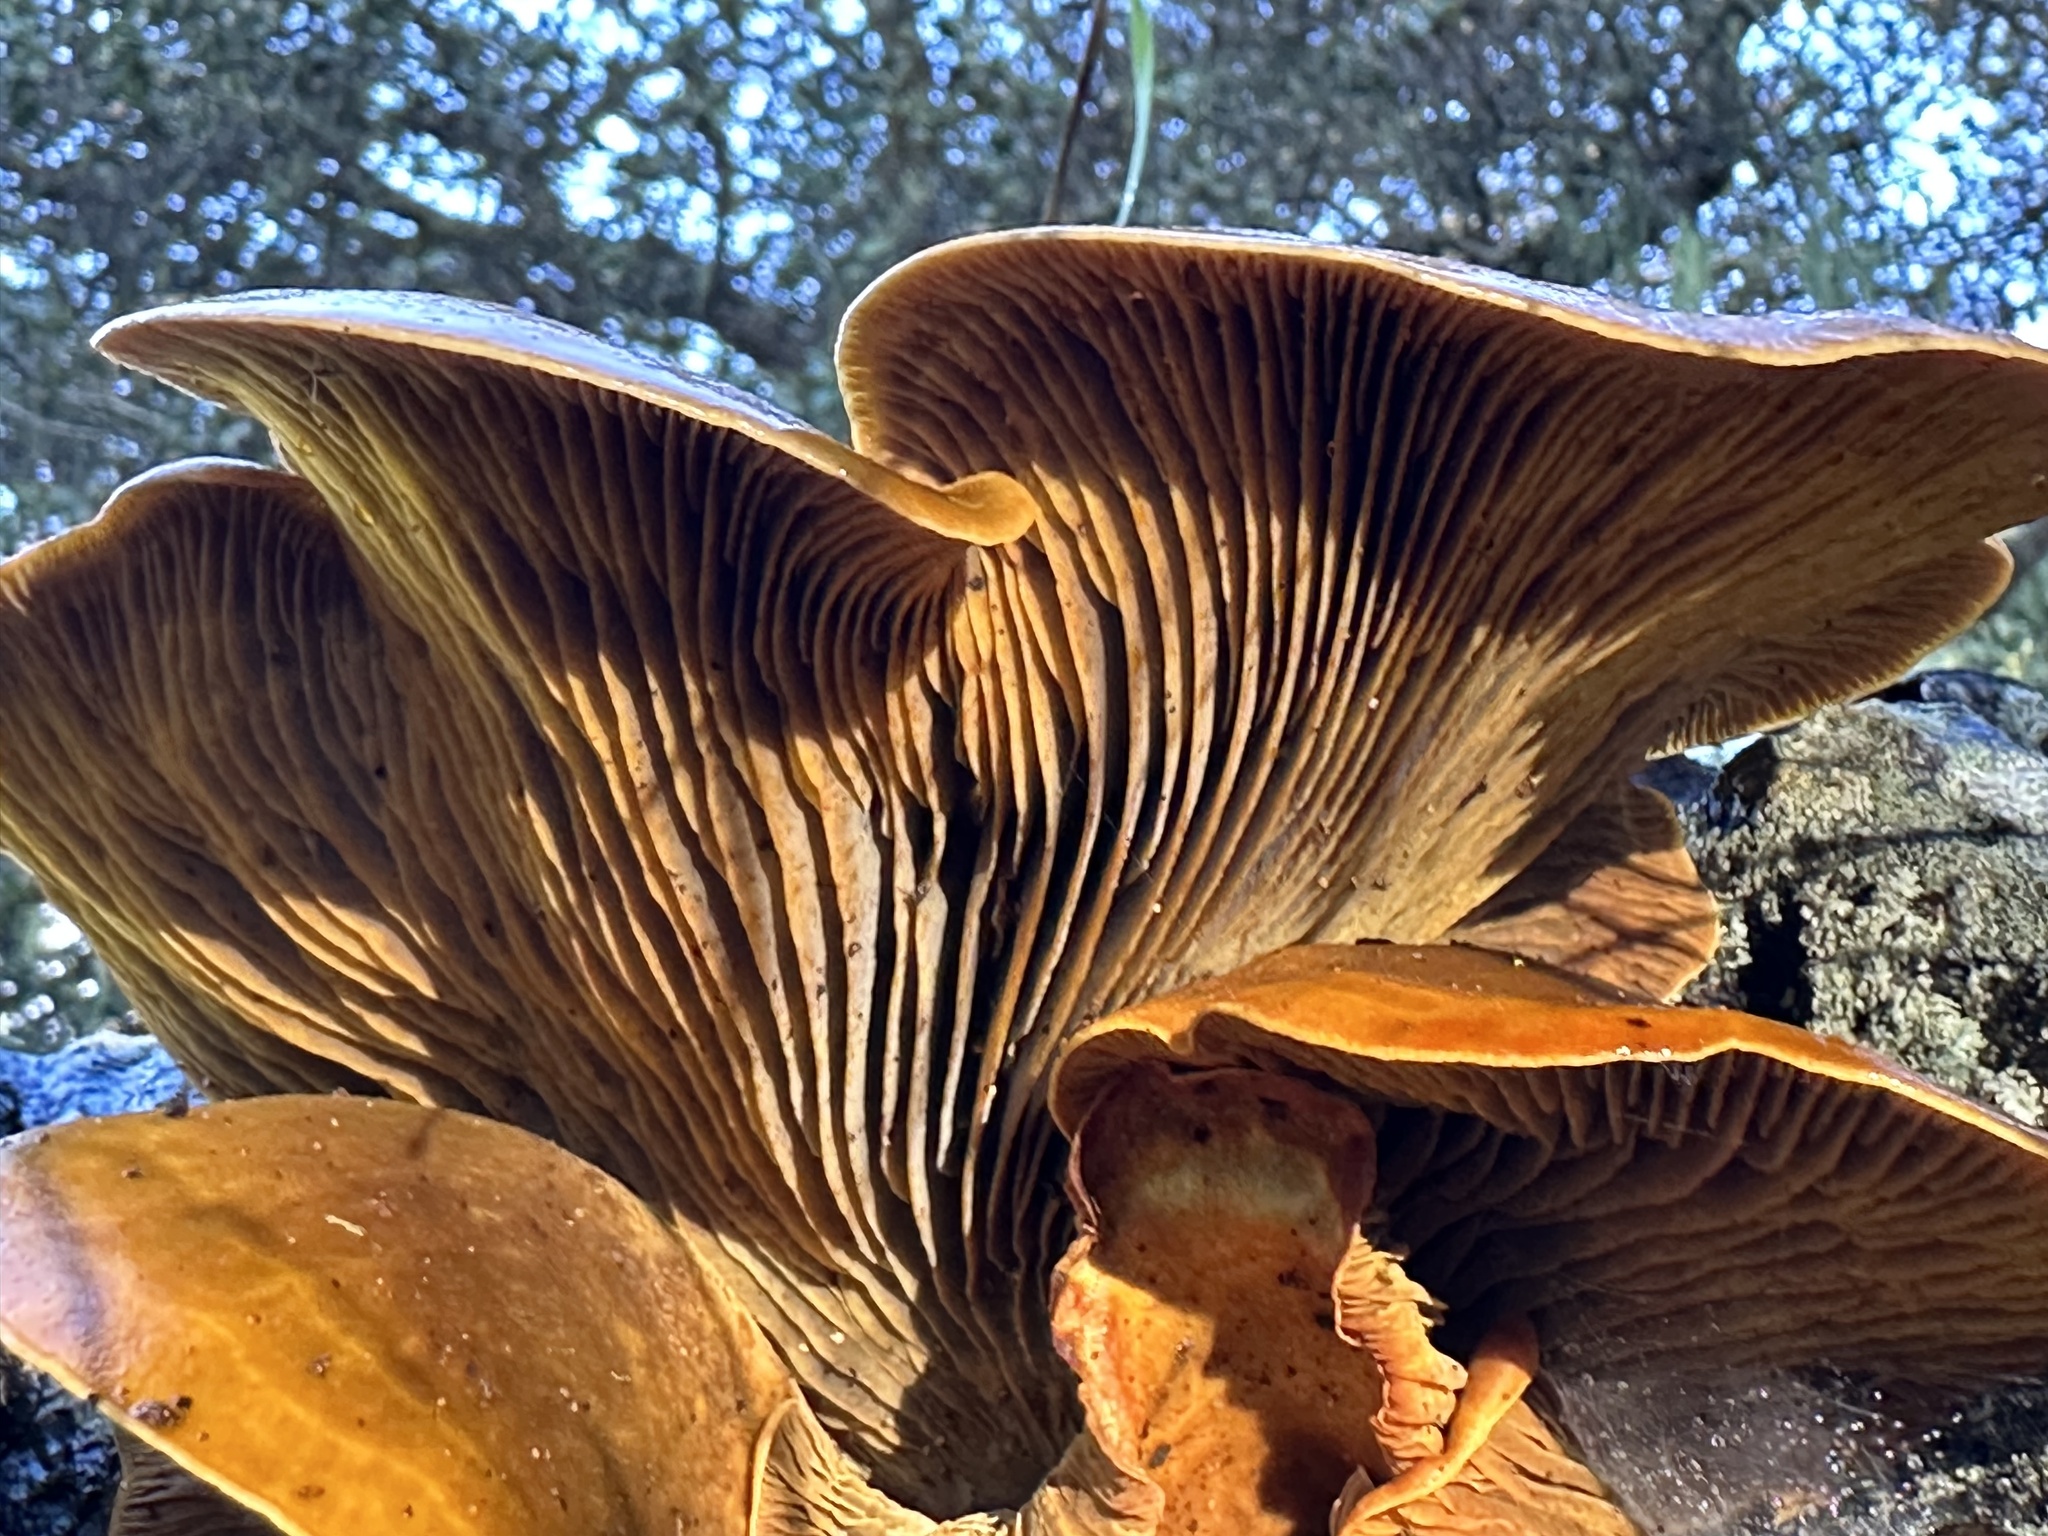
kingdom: Fungi
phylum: Basidiomycota
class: Agaricomycetes
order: Agaricales
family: Omphalotaceae
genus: Omphalotus
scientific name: Omphalotus olivascens
